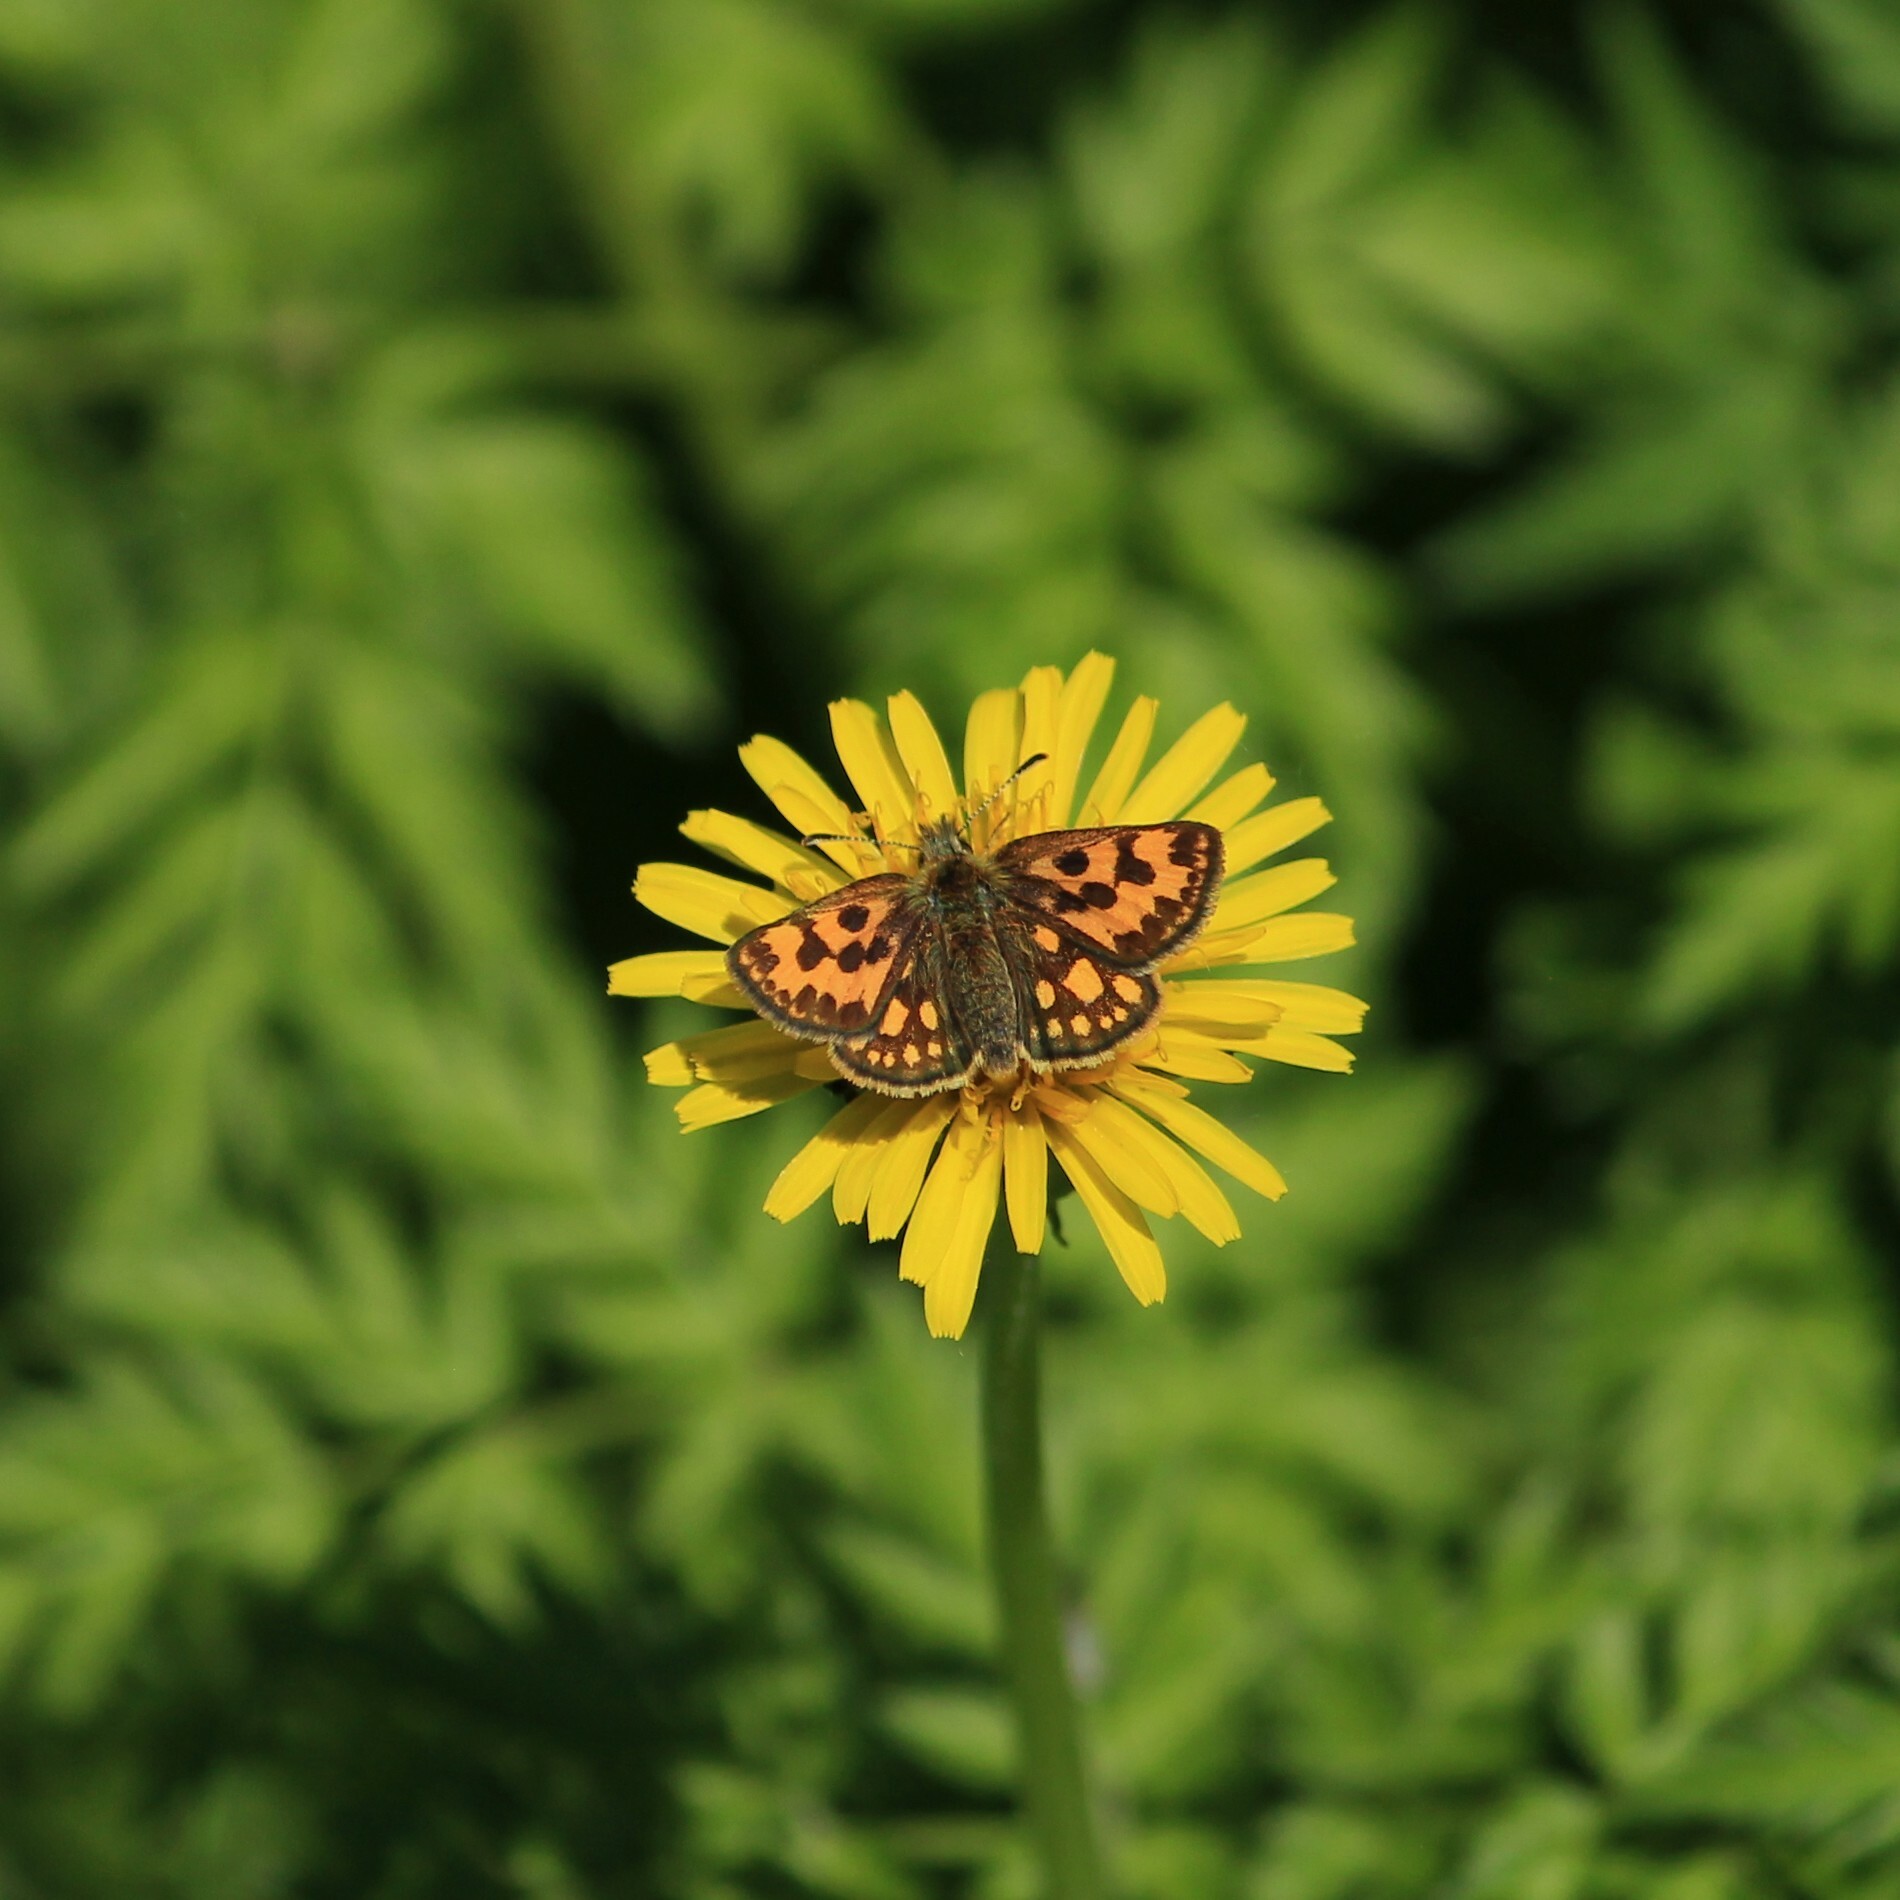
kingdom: Animalia
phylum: Arthropoda
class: Insecta
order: Lepidoptera
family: Hesperiidae
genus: Carterocephalus
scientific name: Carterocephalus silvicola
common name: Northern chequered skipper
